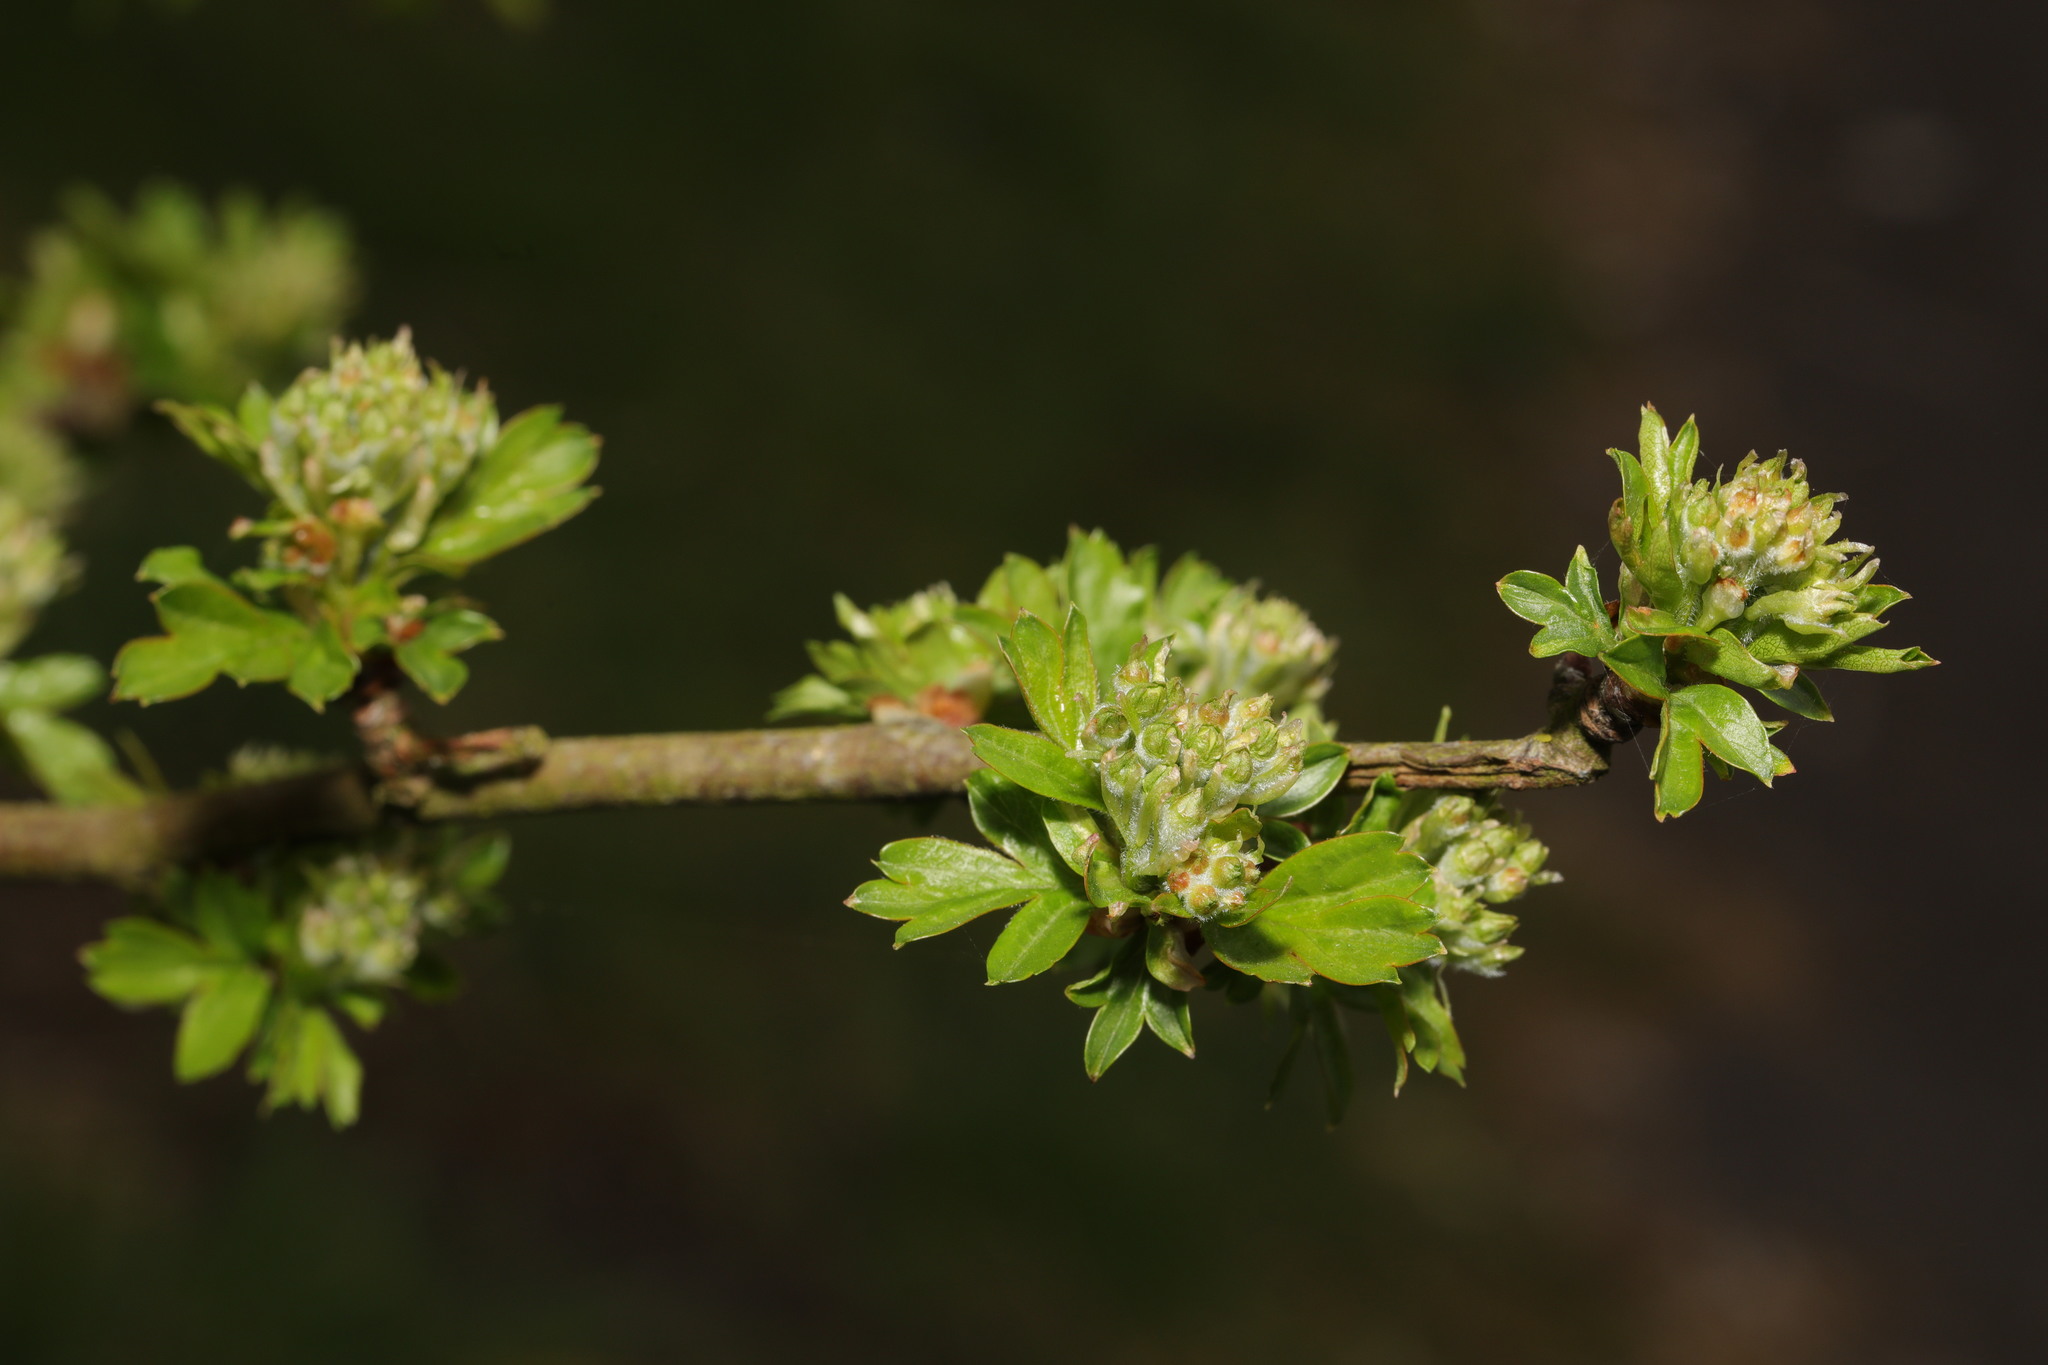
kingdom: Plantae
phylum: Tracheophyta
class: Magnoliopsida
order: Rosales
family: Rosaceae
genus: Crataegus
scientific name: Crataegus monogyna
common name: Hawthorn
